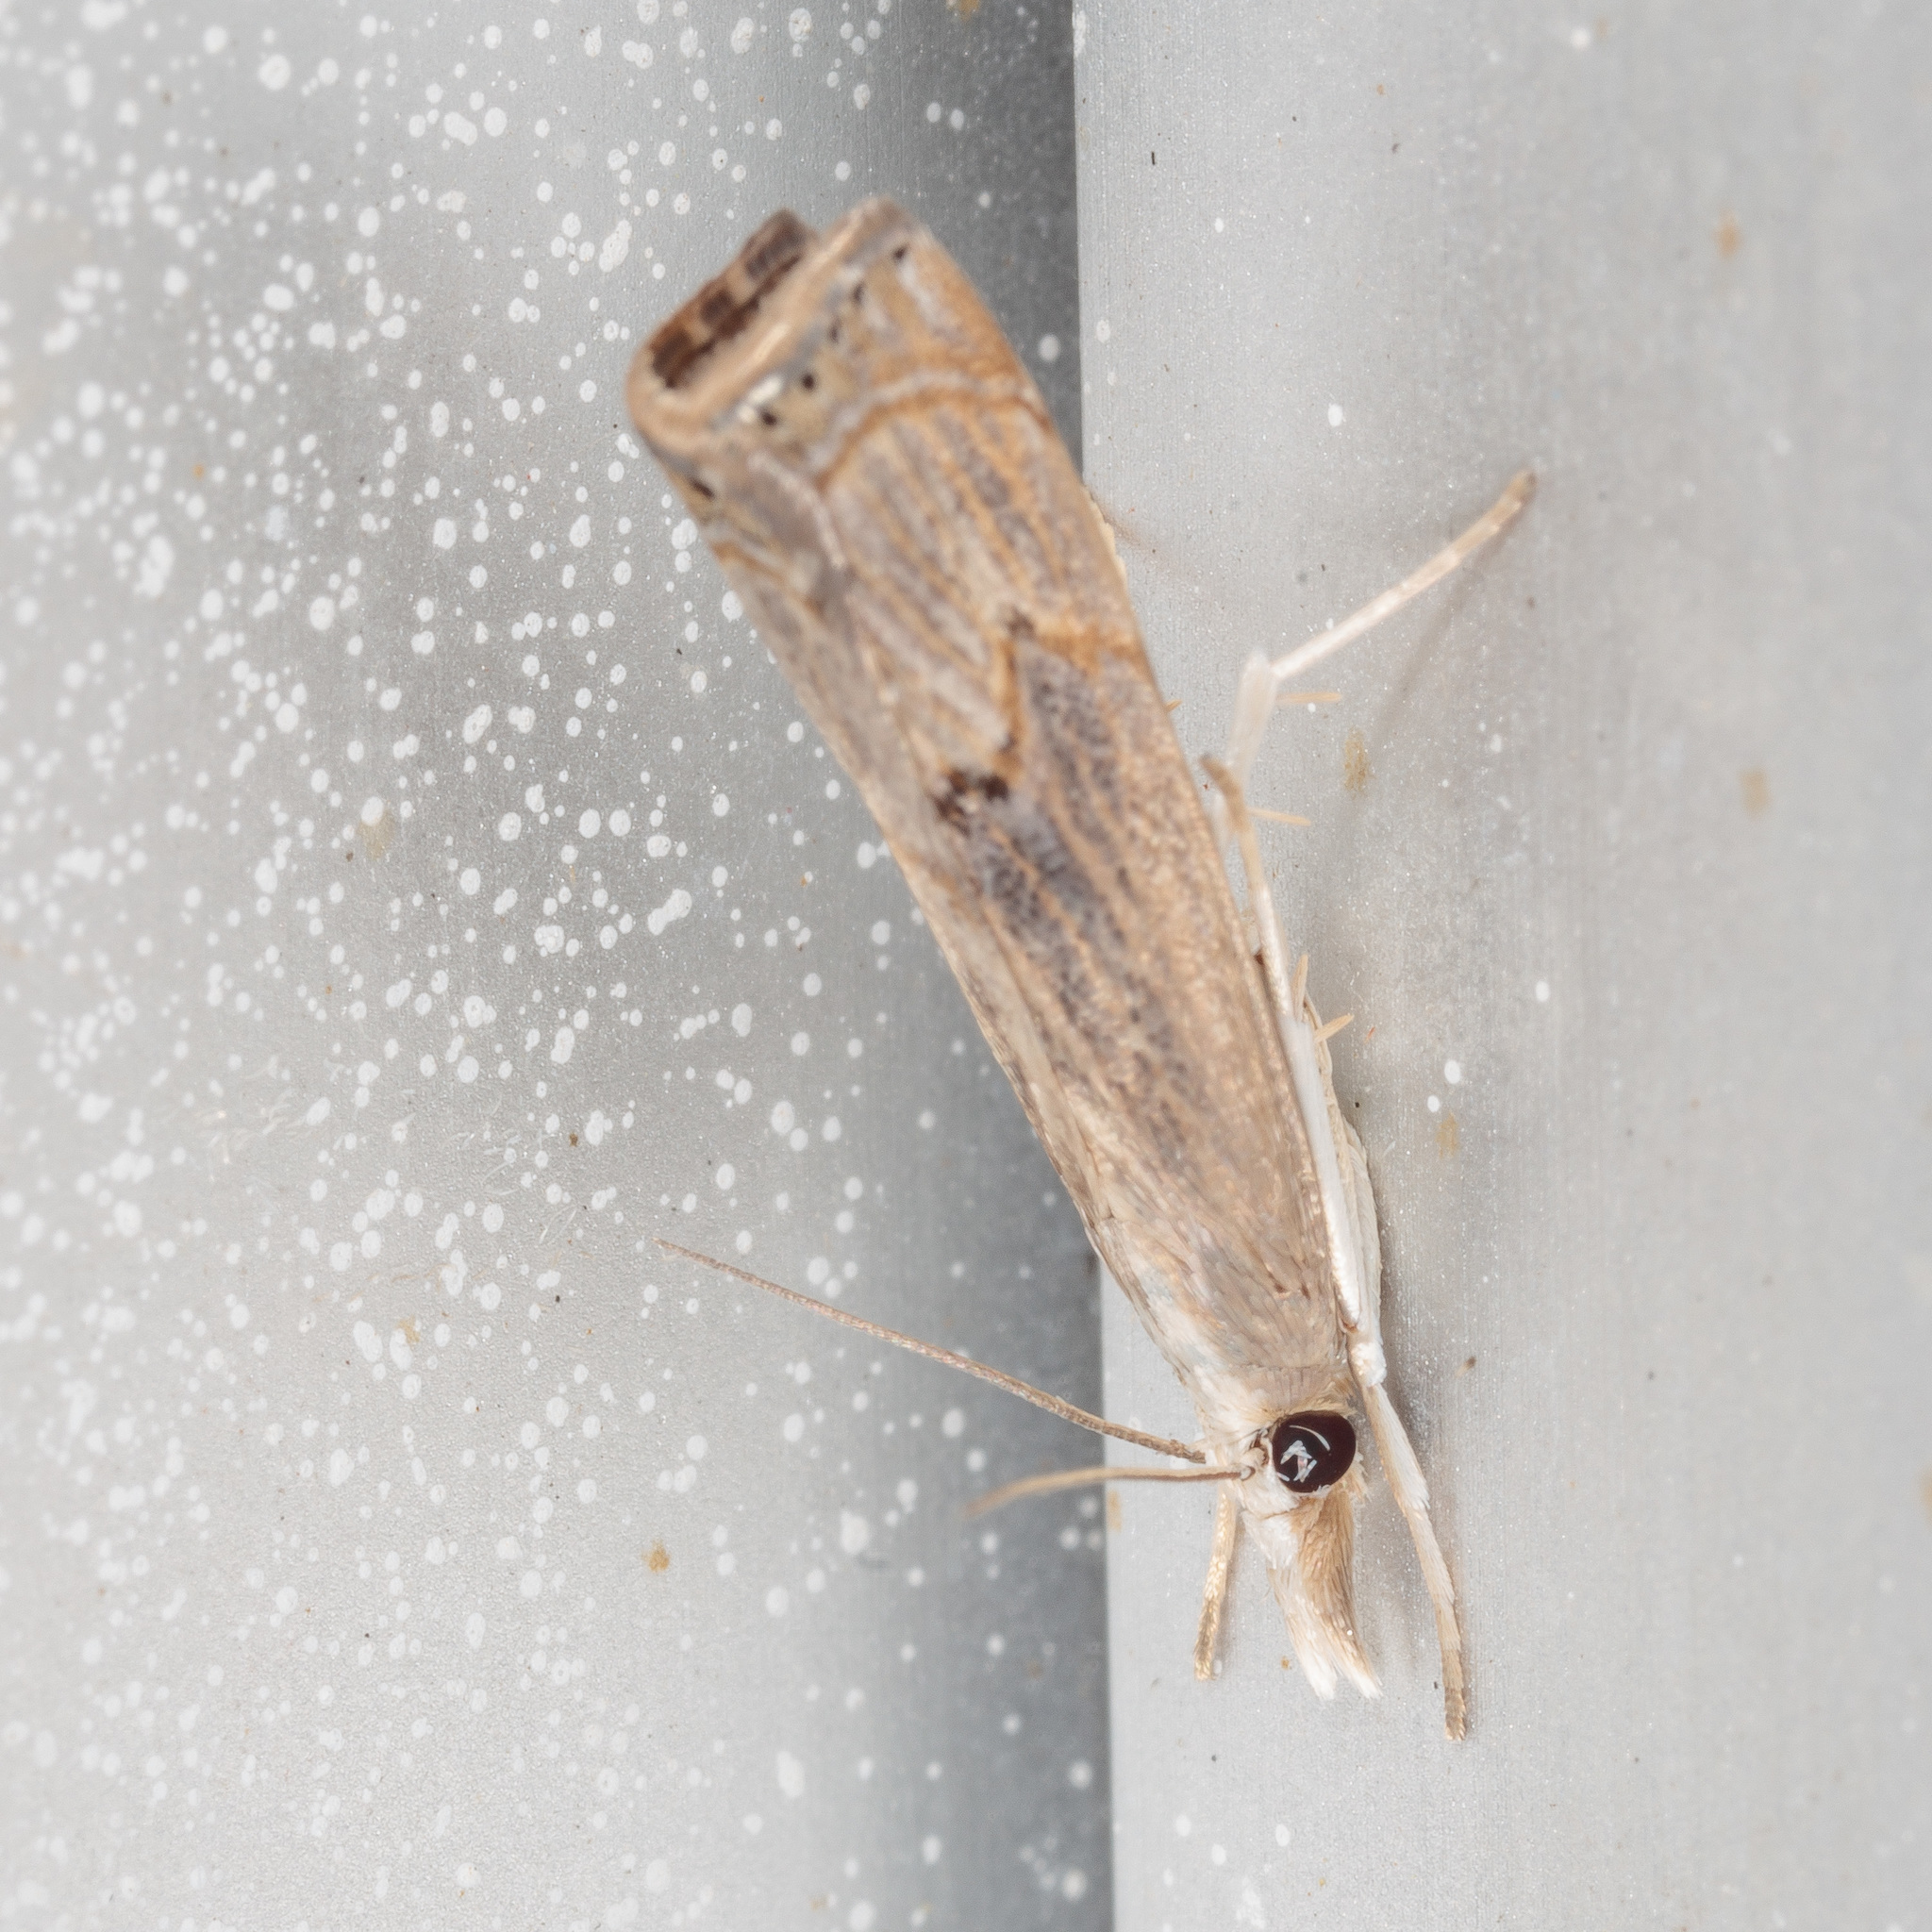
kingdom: Animalia
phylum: Arthropoda
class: Insecta
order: Lepidoptera
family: Crambidae
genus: Parapediasia
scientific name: Parapediasia teterellus
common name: Bluegrass webworm moth
